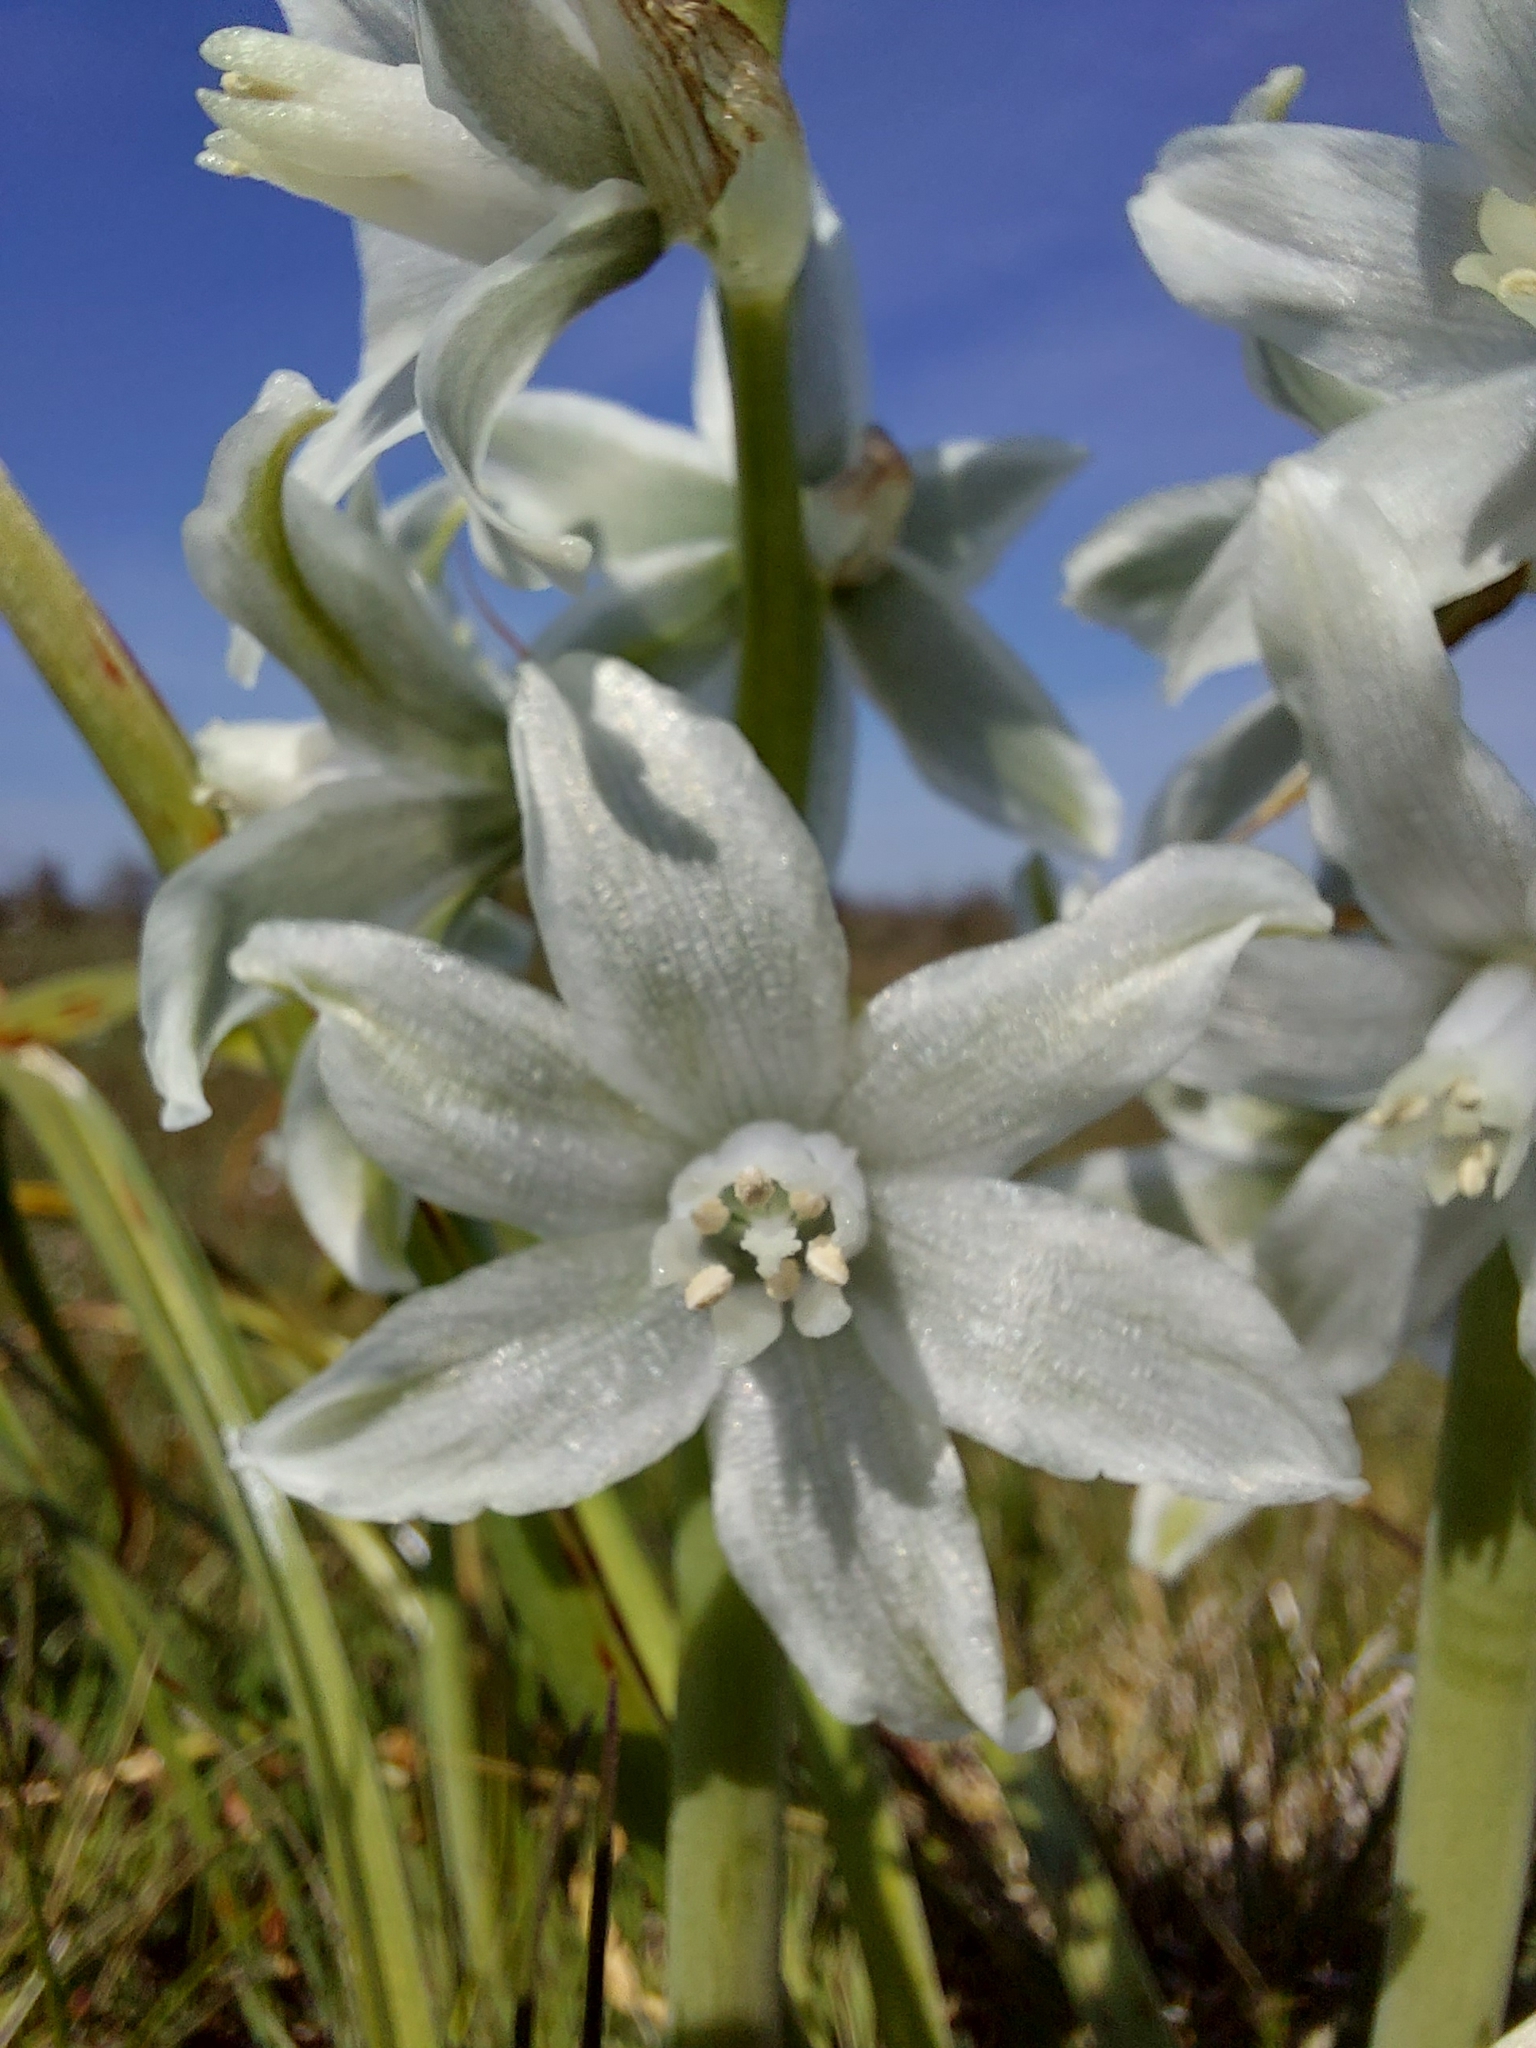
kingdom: Plantae
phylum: Tracheophyta
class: Liliopsida
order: Asparagales
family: Asparagaceae
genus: Ornithogalum
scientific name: Ornithogalum nutans
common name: Drooping star-of-bethlehem
